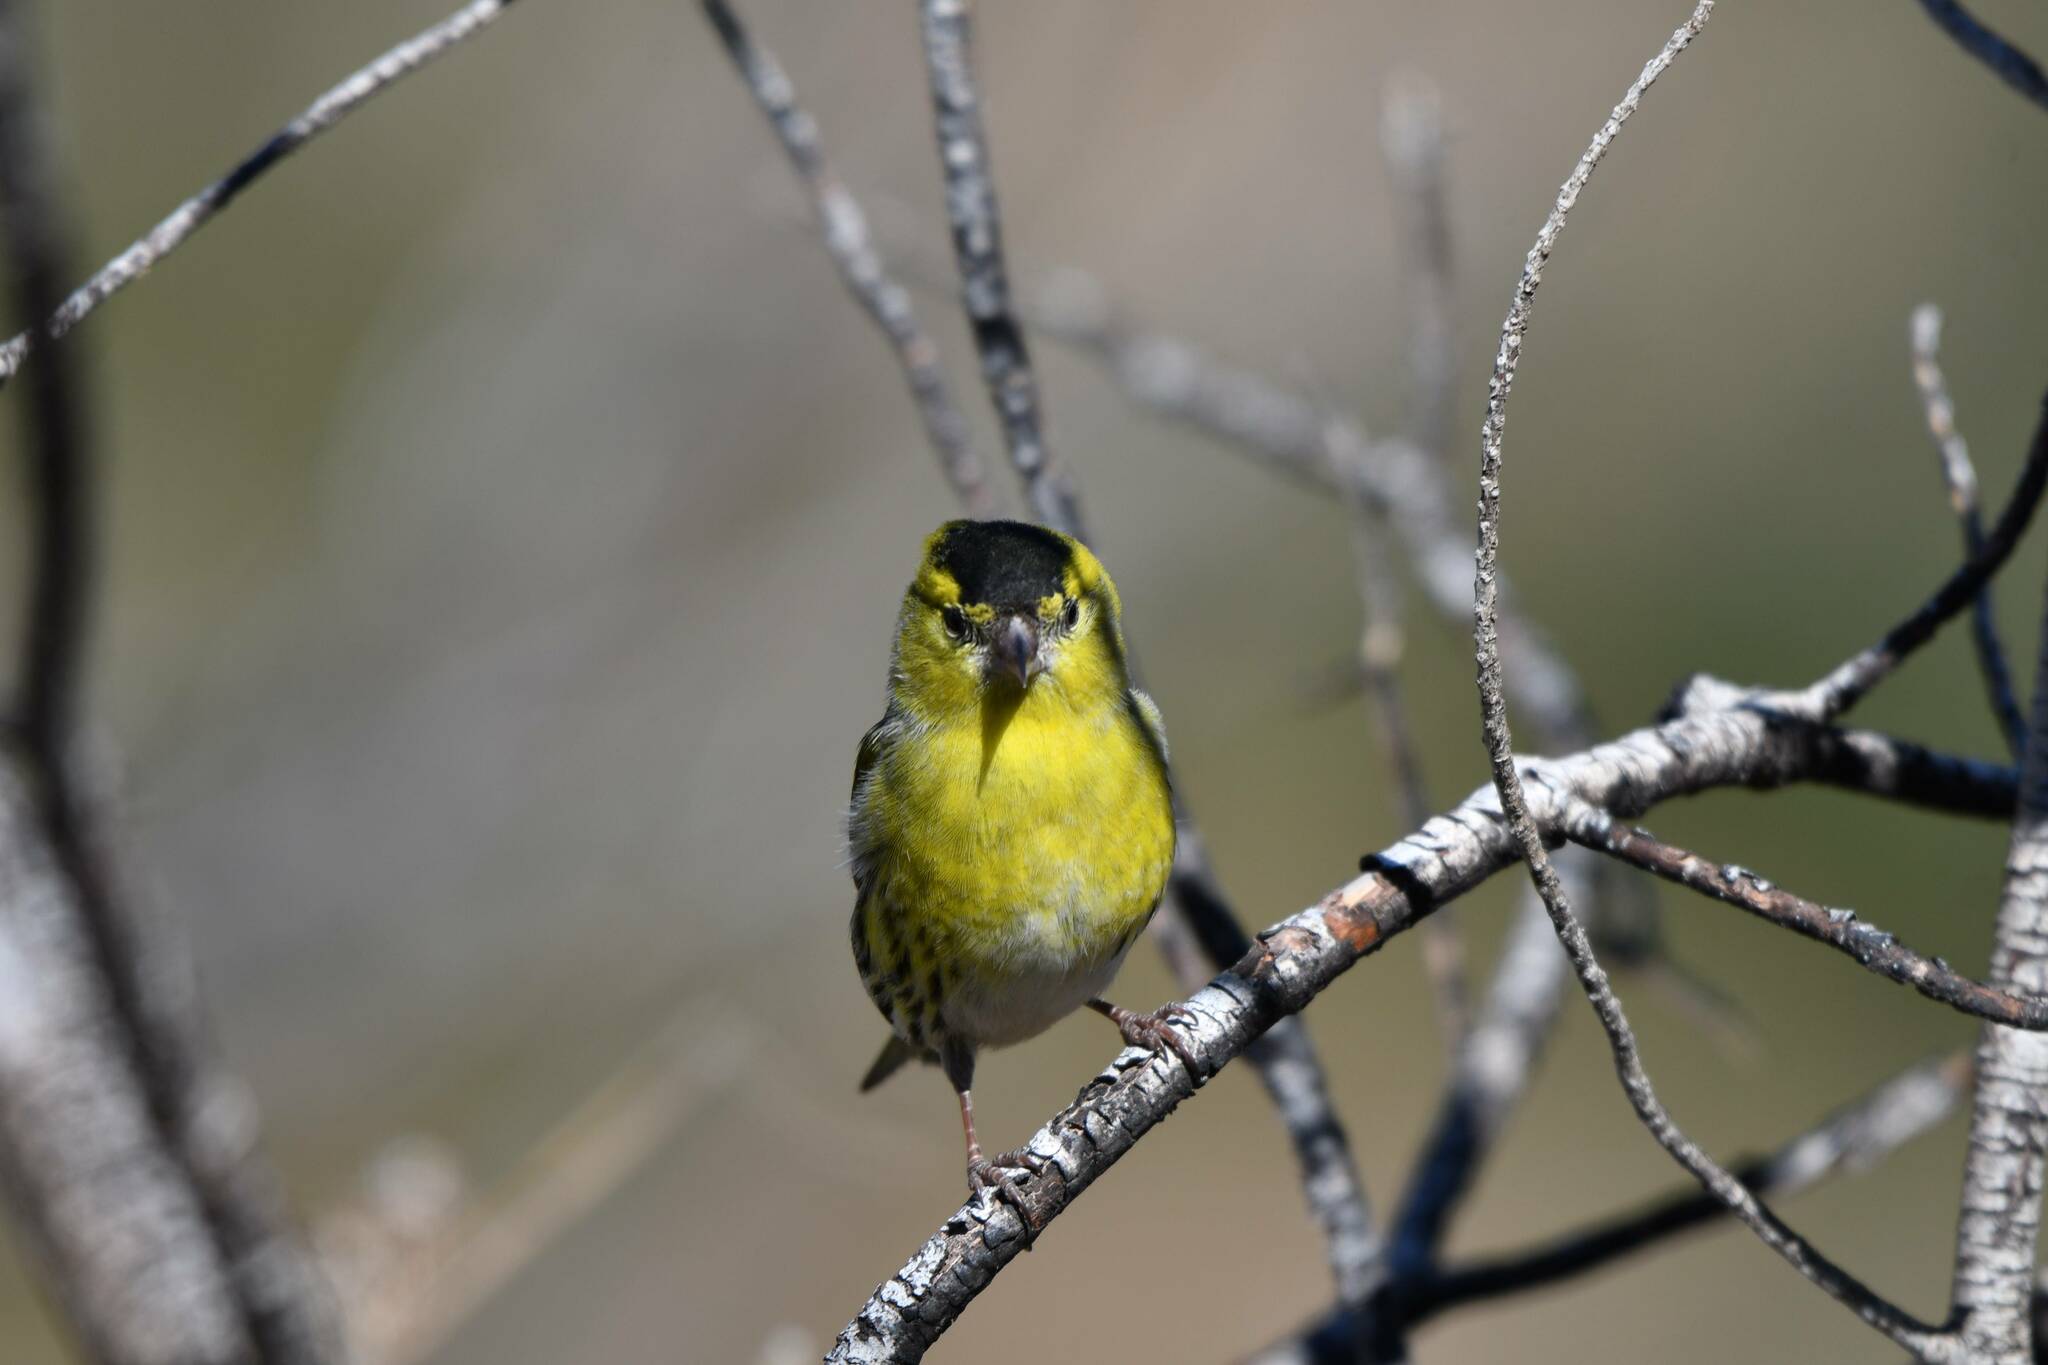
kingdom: Animalia
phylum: Chordata
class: Aves
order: Passeriformes
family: Fringillidae
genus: Spinus
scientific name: Spinus spinus
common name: Eurasian siskin
